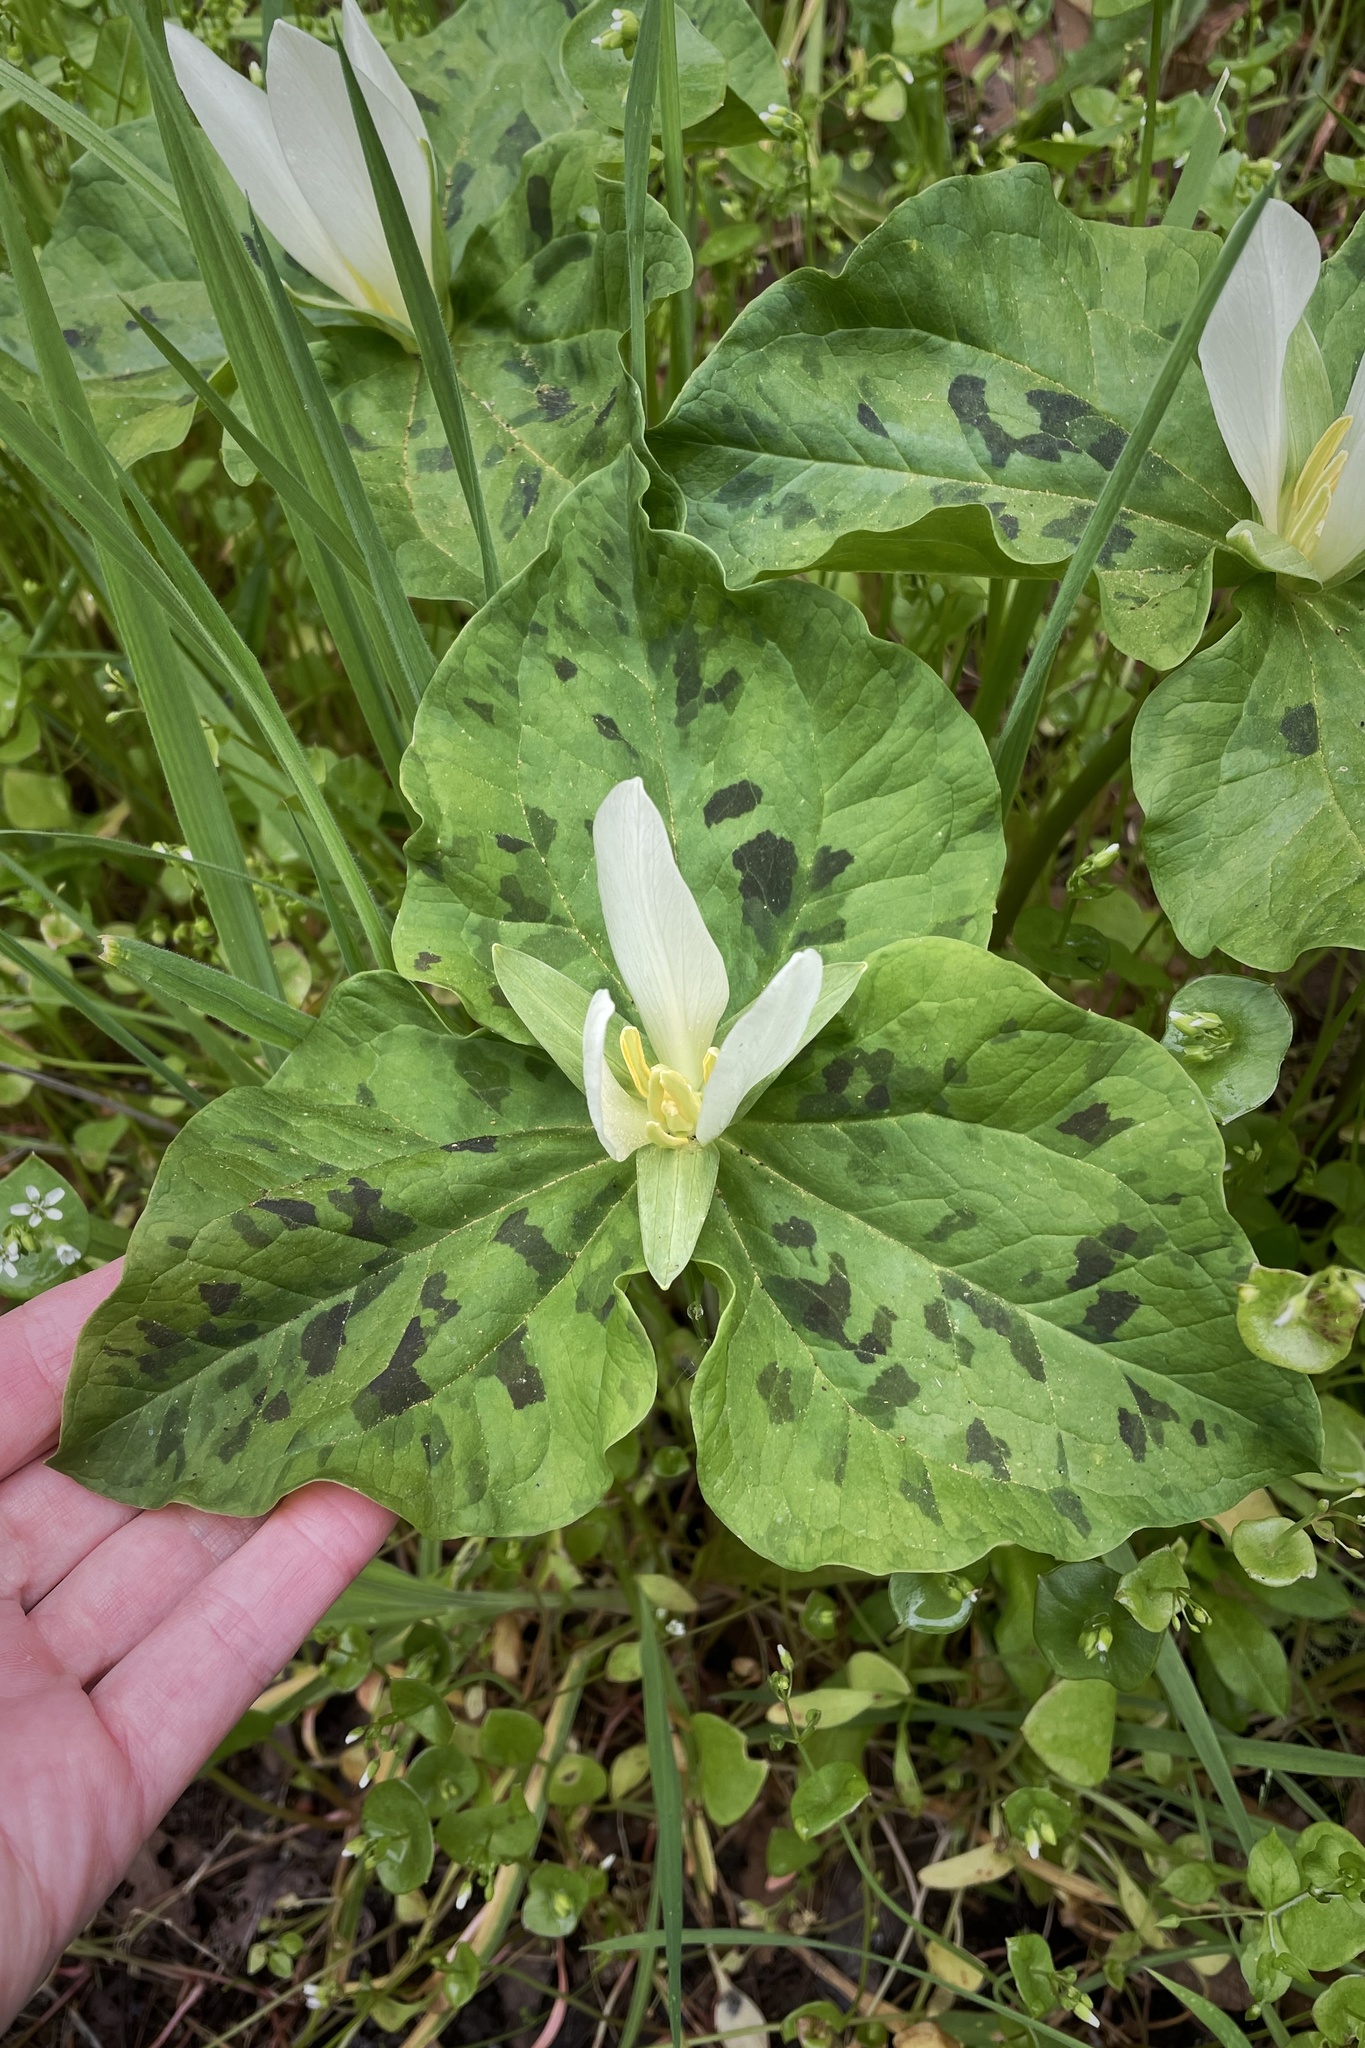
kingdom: Plantae
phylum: Tracheophyta
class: Liliopsida
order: Liliales
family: Melanthiaceae
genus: Trillium
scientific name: Trillium albidum
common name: Freeman's trillium
